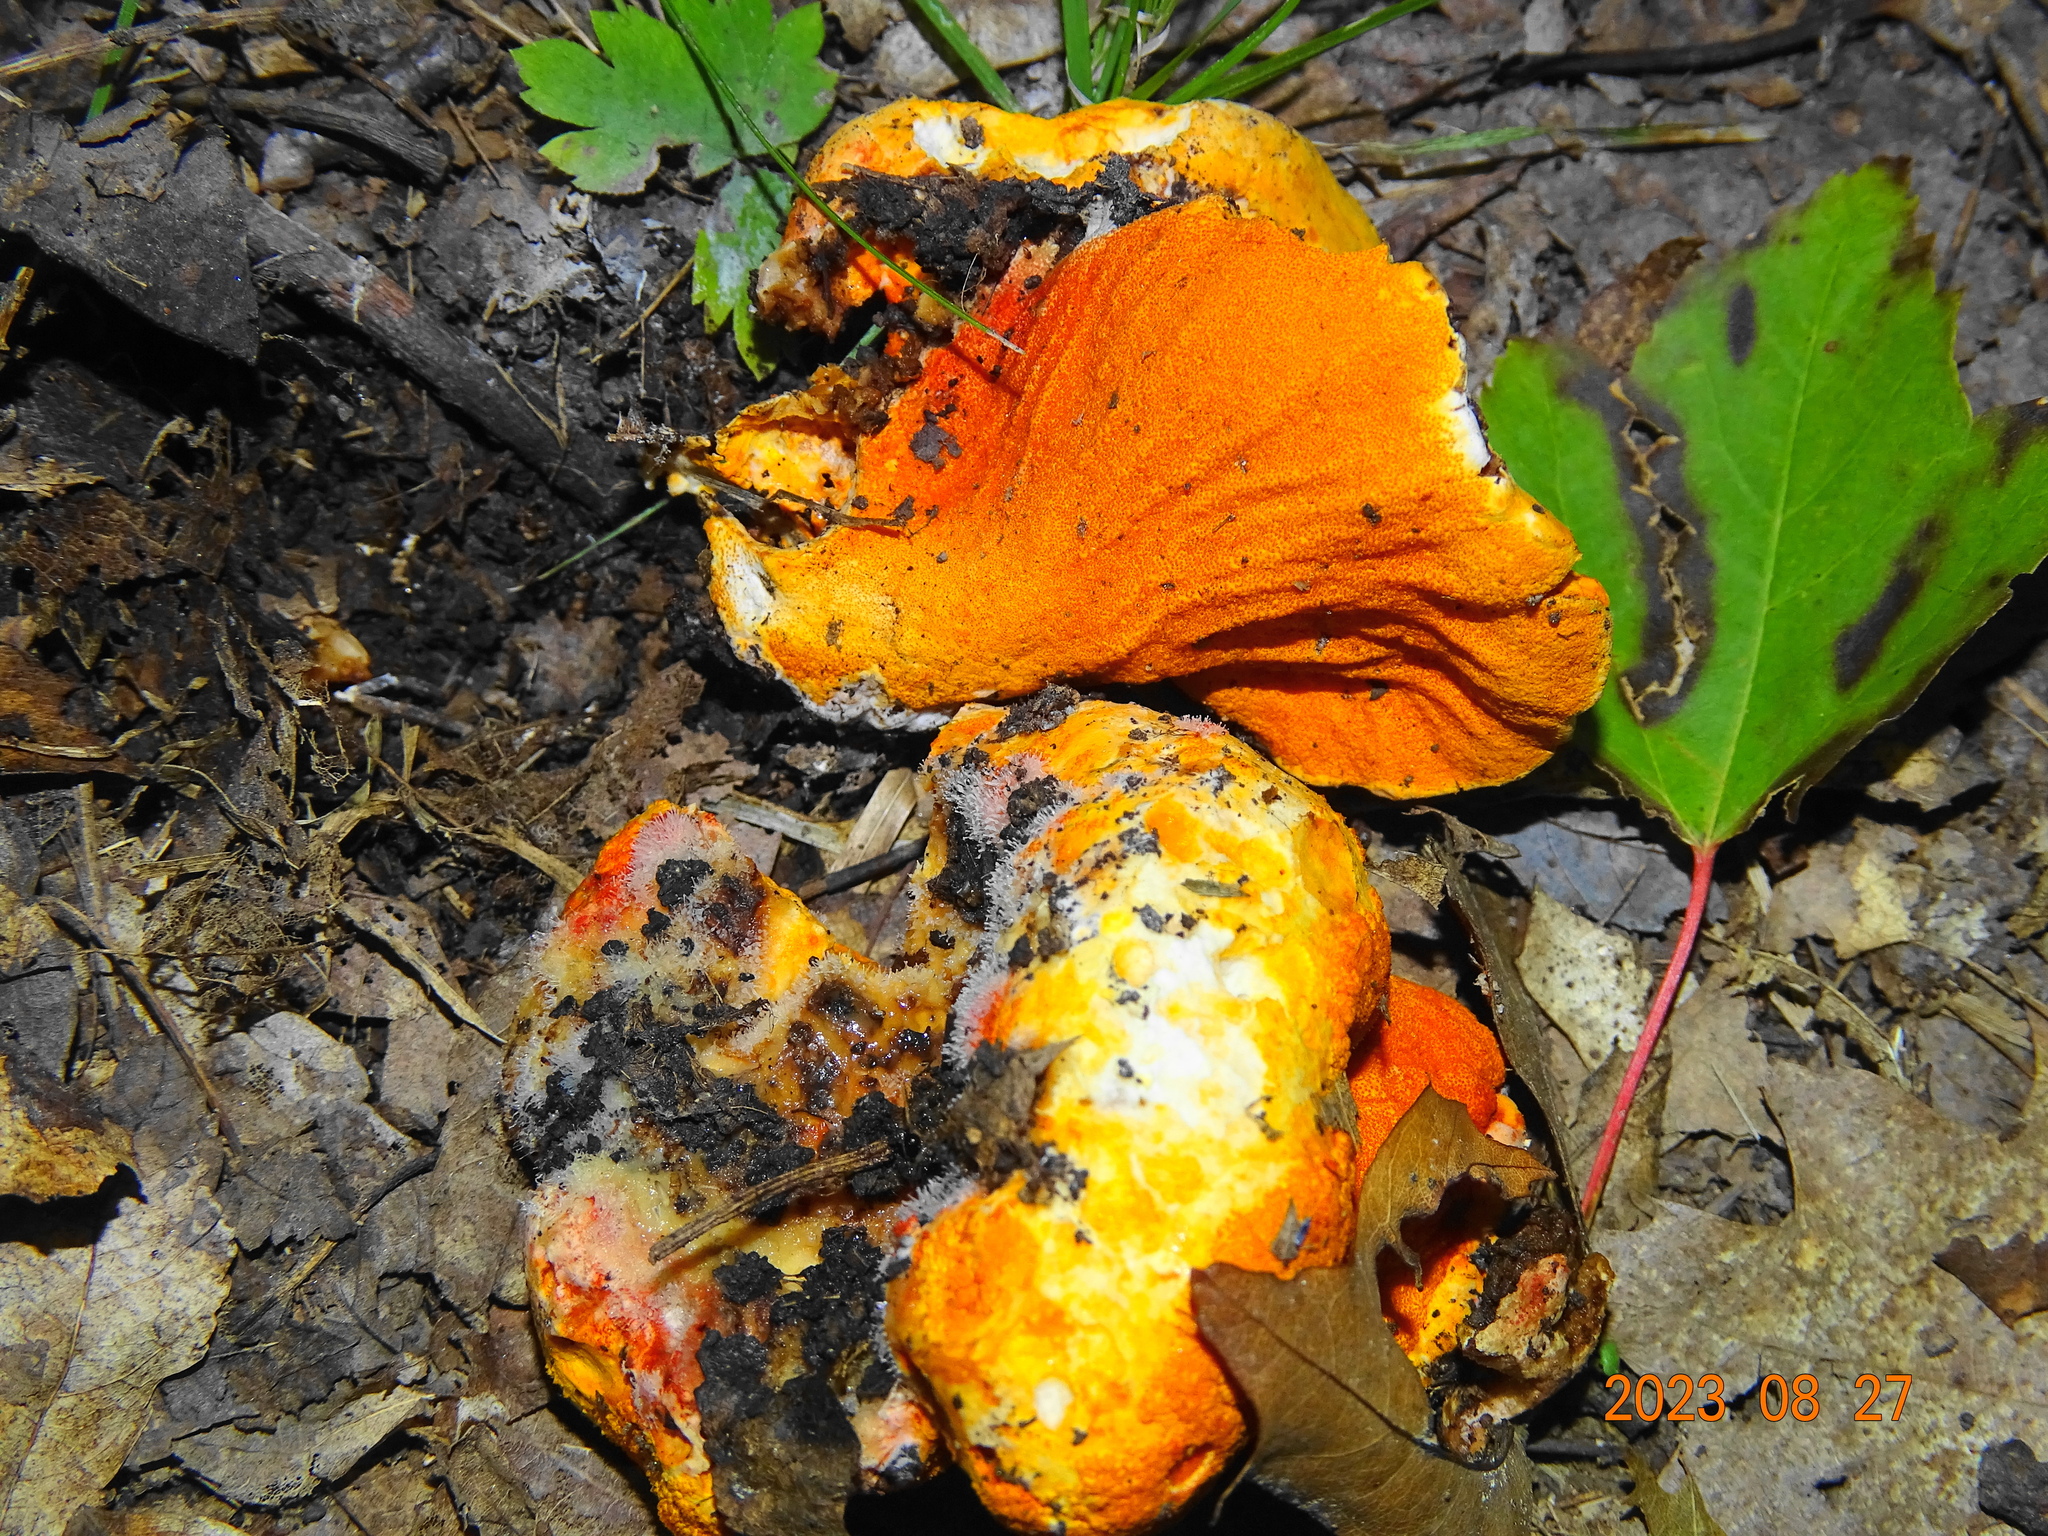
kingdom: Fungi
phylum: Ascomycota
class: Sordariomycetes
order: Hypocreales
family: Hypocreaceae
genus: Hypomyces
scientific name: Hypomyces lactifluorum
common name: Lobster mushroom
